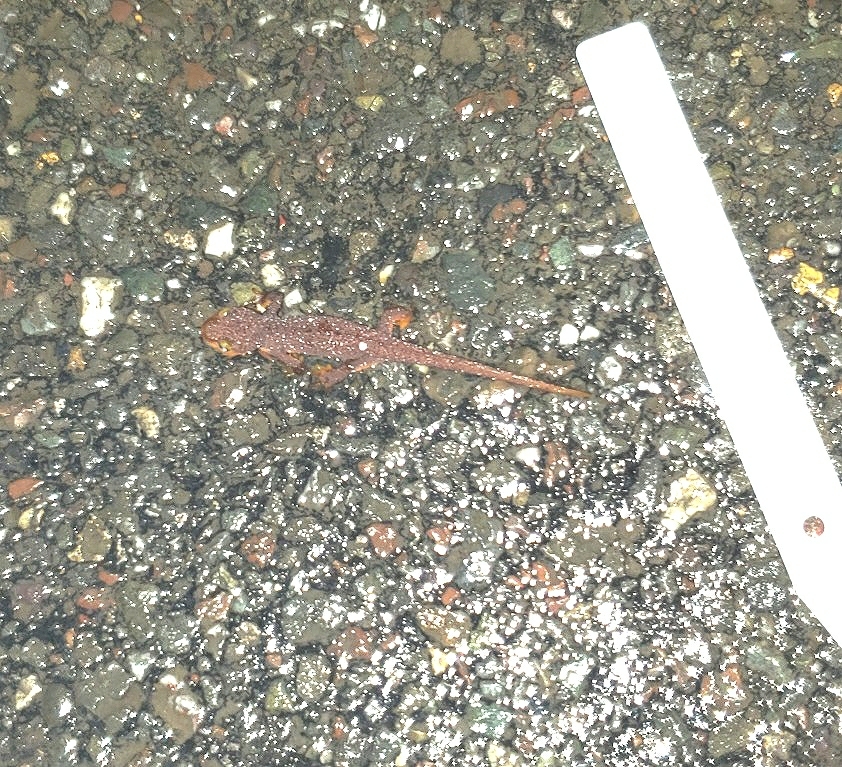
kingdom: Animalia
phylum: Chordata
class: Amphibia
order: Caudata
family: Salamandridae
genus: Taricha
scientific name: Taricha torosa
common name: California newt
